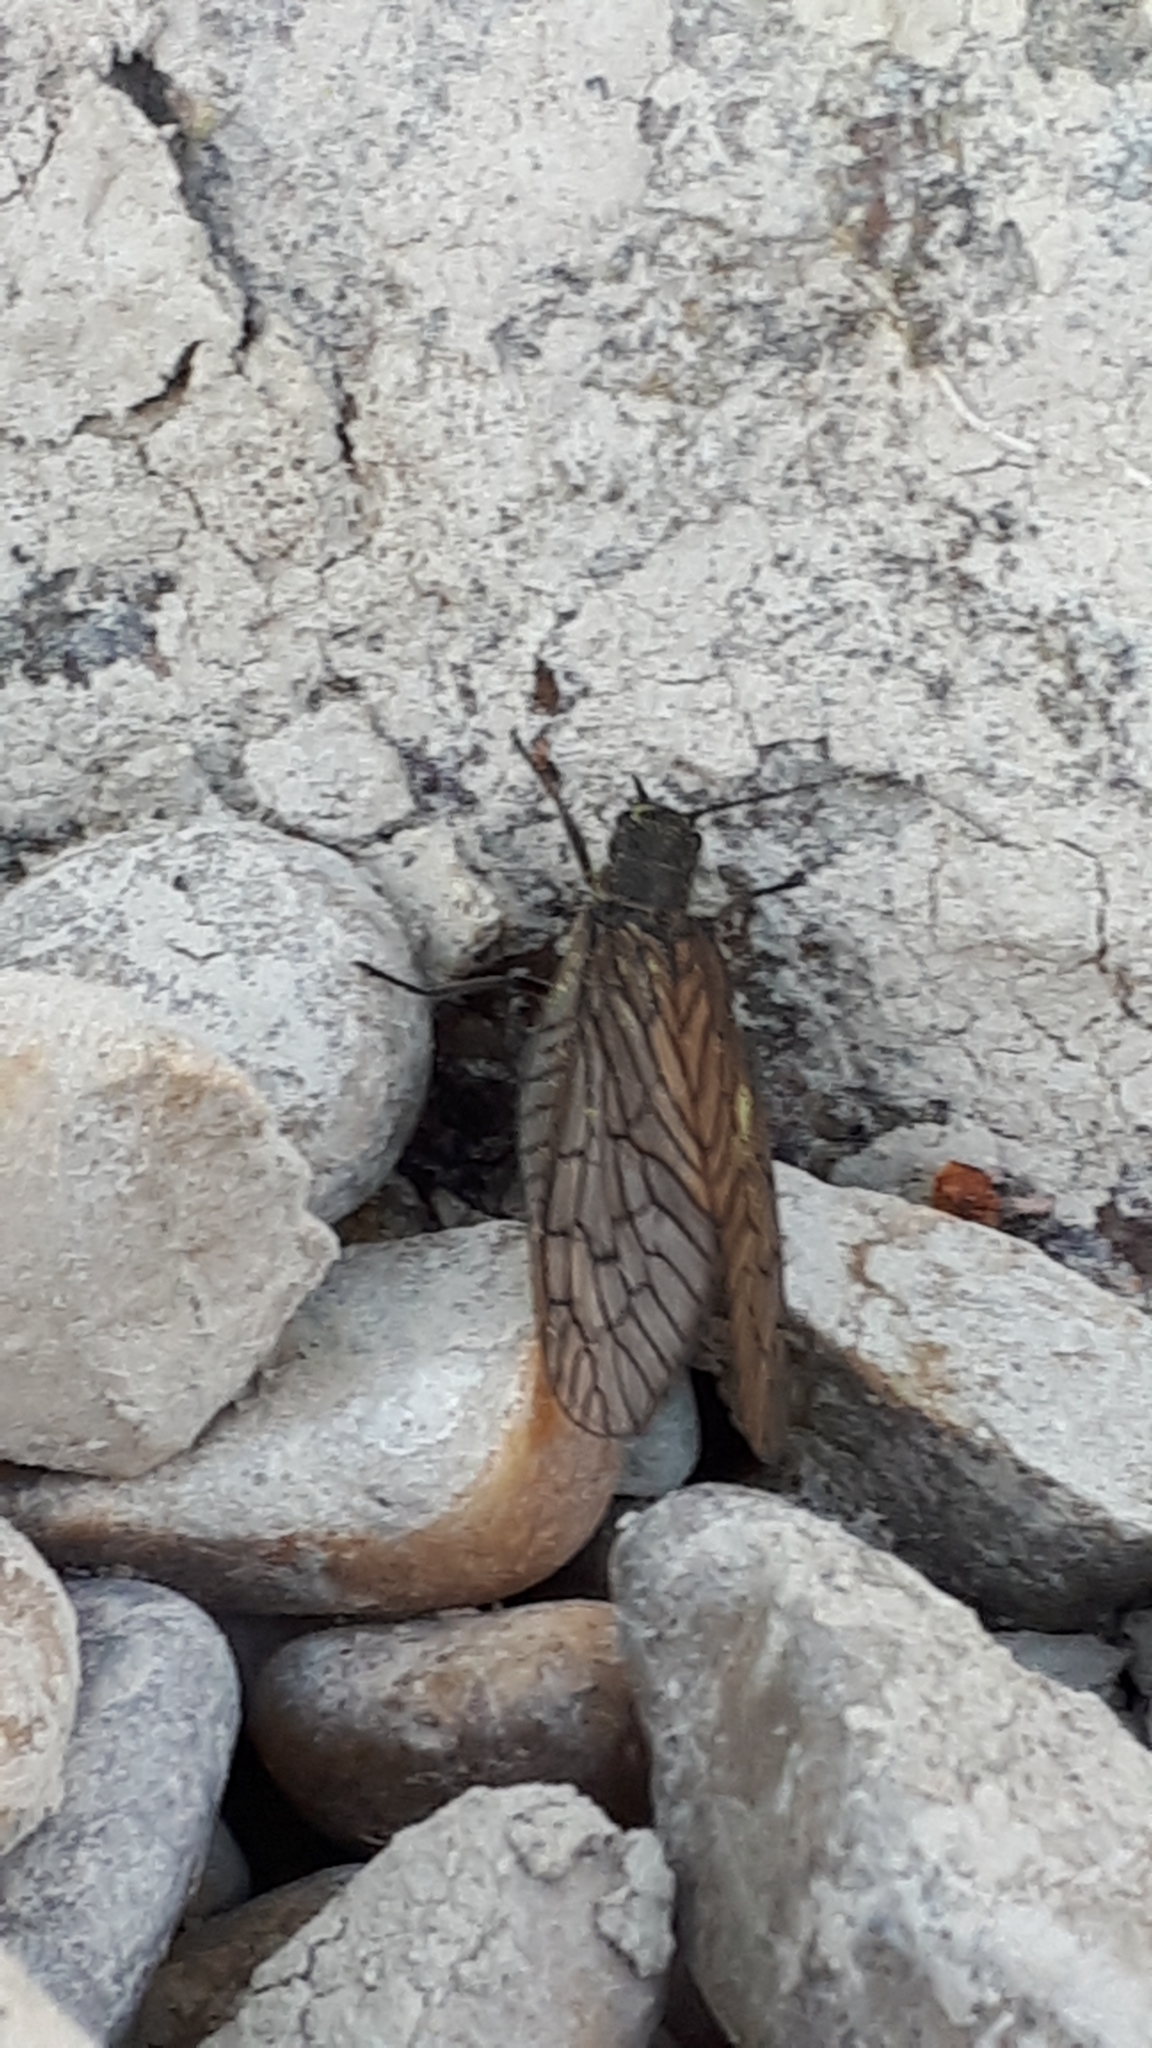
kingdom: Animalia
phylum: Arthropoda
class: Insecta
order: Megaloptera
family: Sialidae
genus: Sialis
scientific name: Sialis
